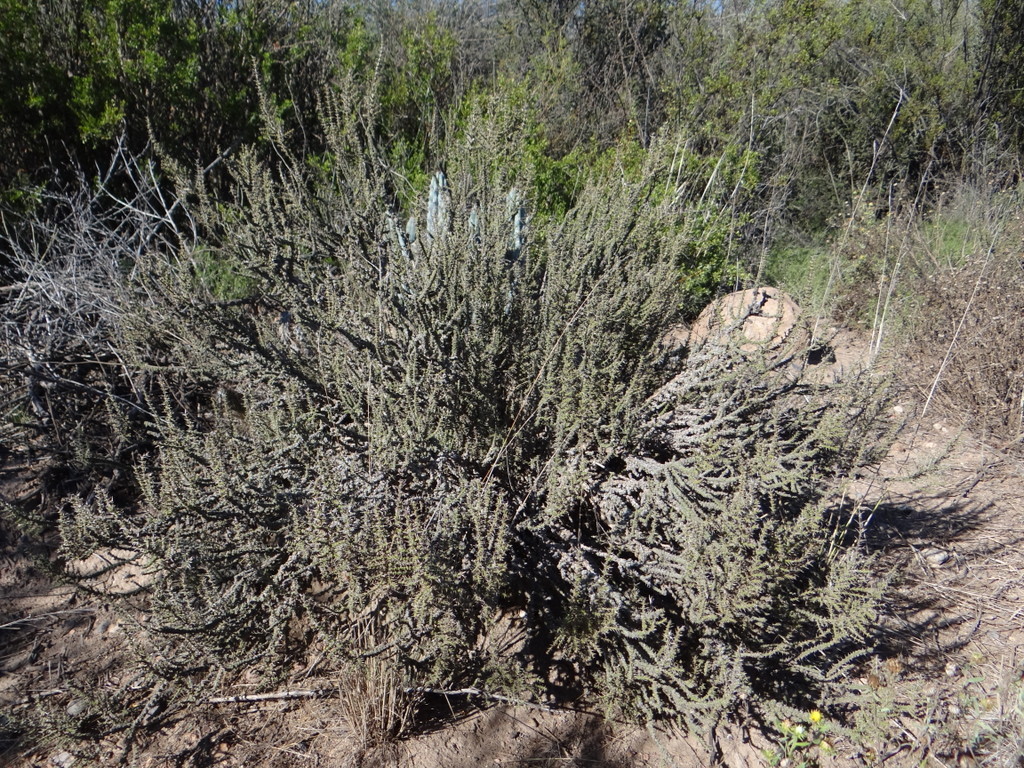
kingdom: Plantae
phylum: Tracheophyta
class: Magnoliopsida
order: Lamiales
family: Verbenaceae
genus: Junellia
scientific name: Junellia seriphioides
